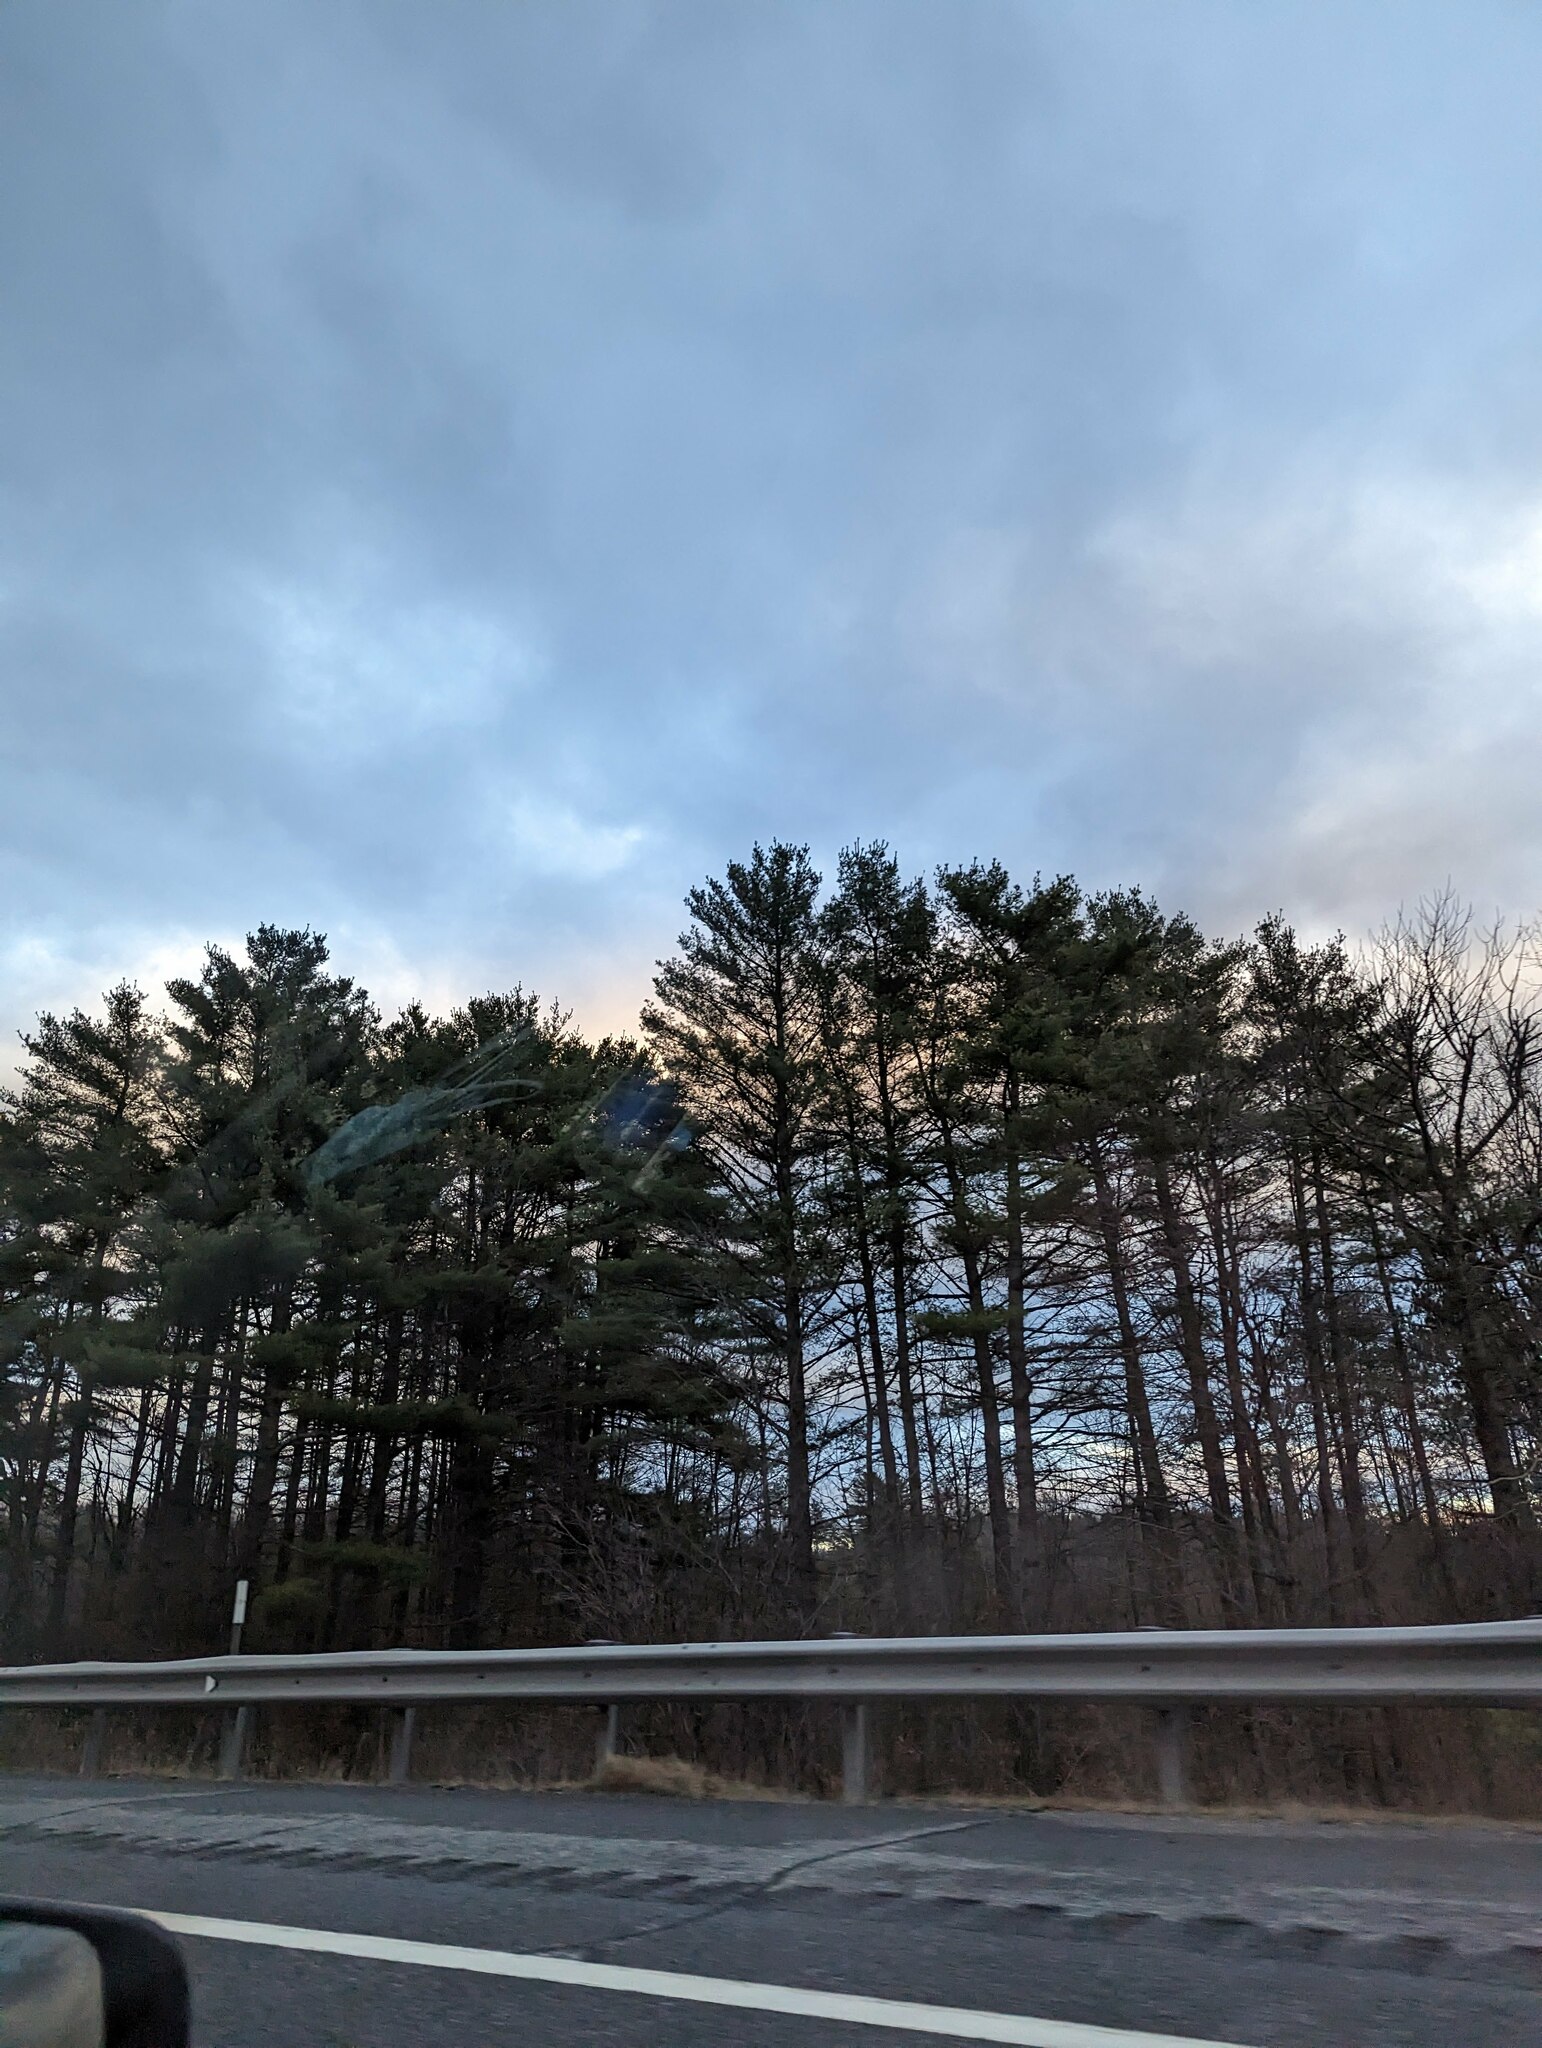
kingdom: Plantae
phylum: Tracheophyta
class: Pinopsida
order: Pinales
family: Pinaceae
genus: Pinus
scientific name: Pinus strobus
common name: Weymouth pine
